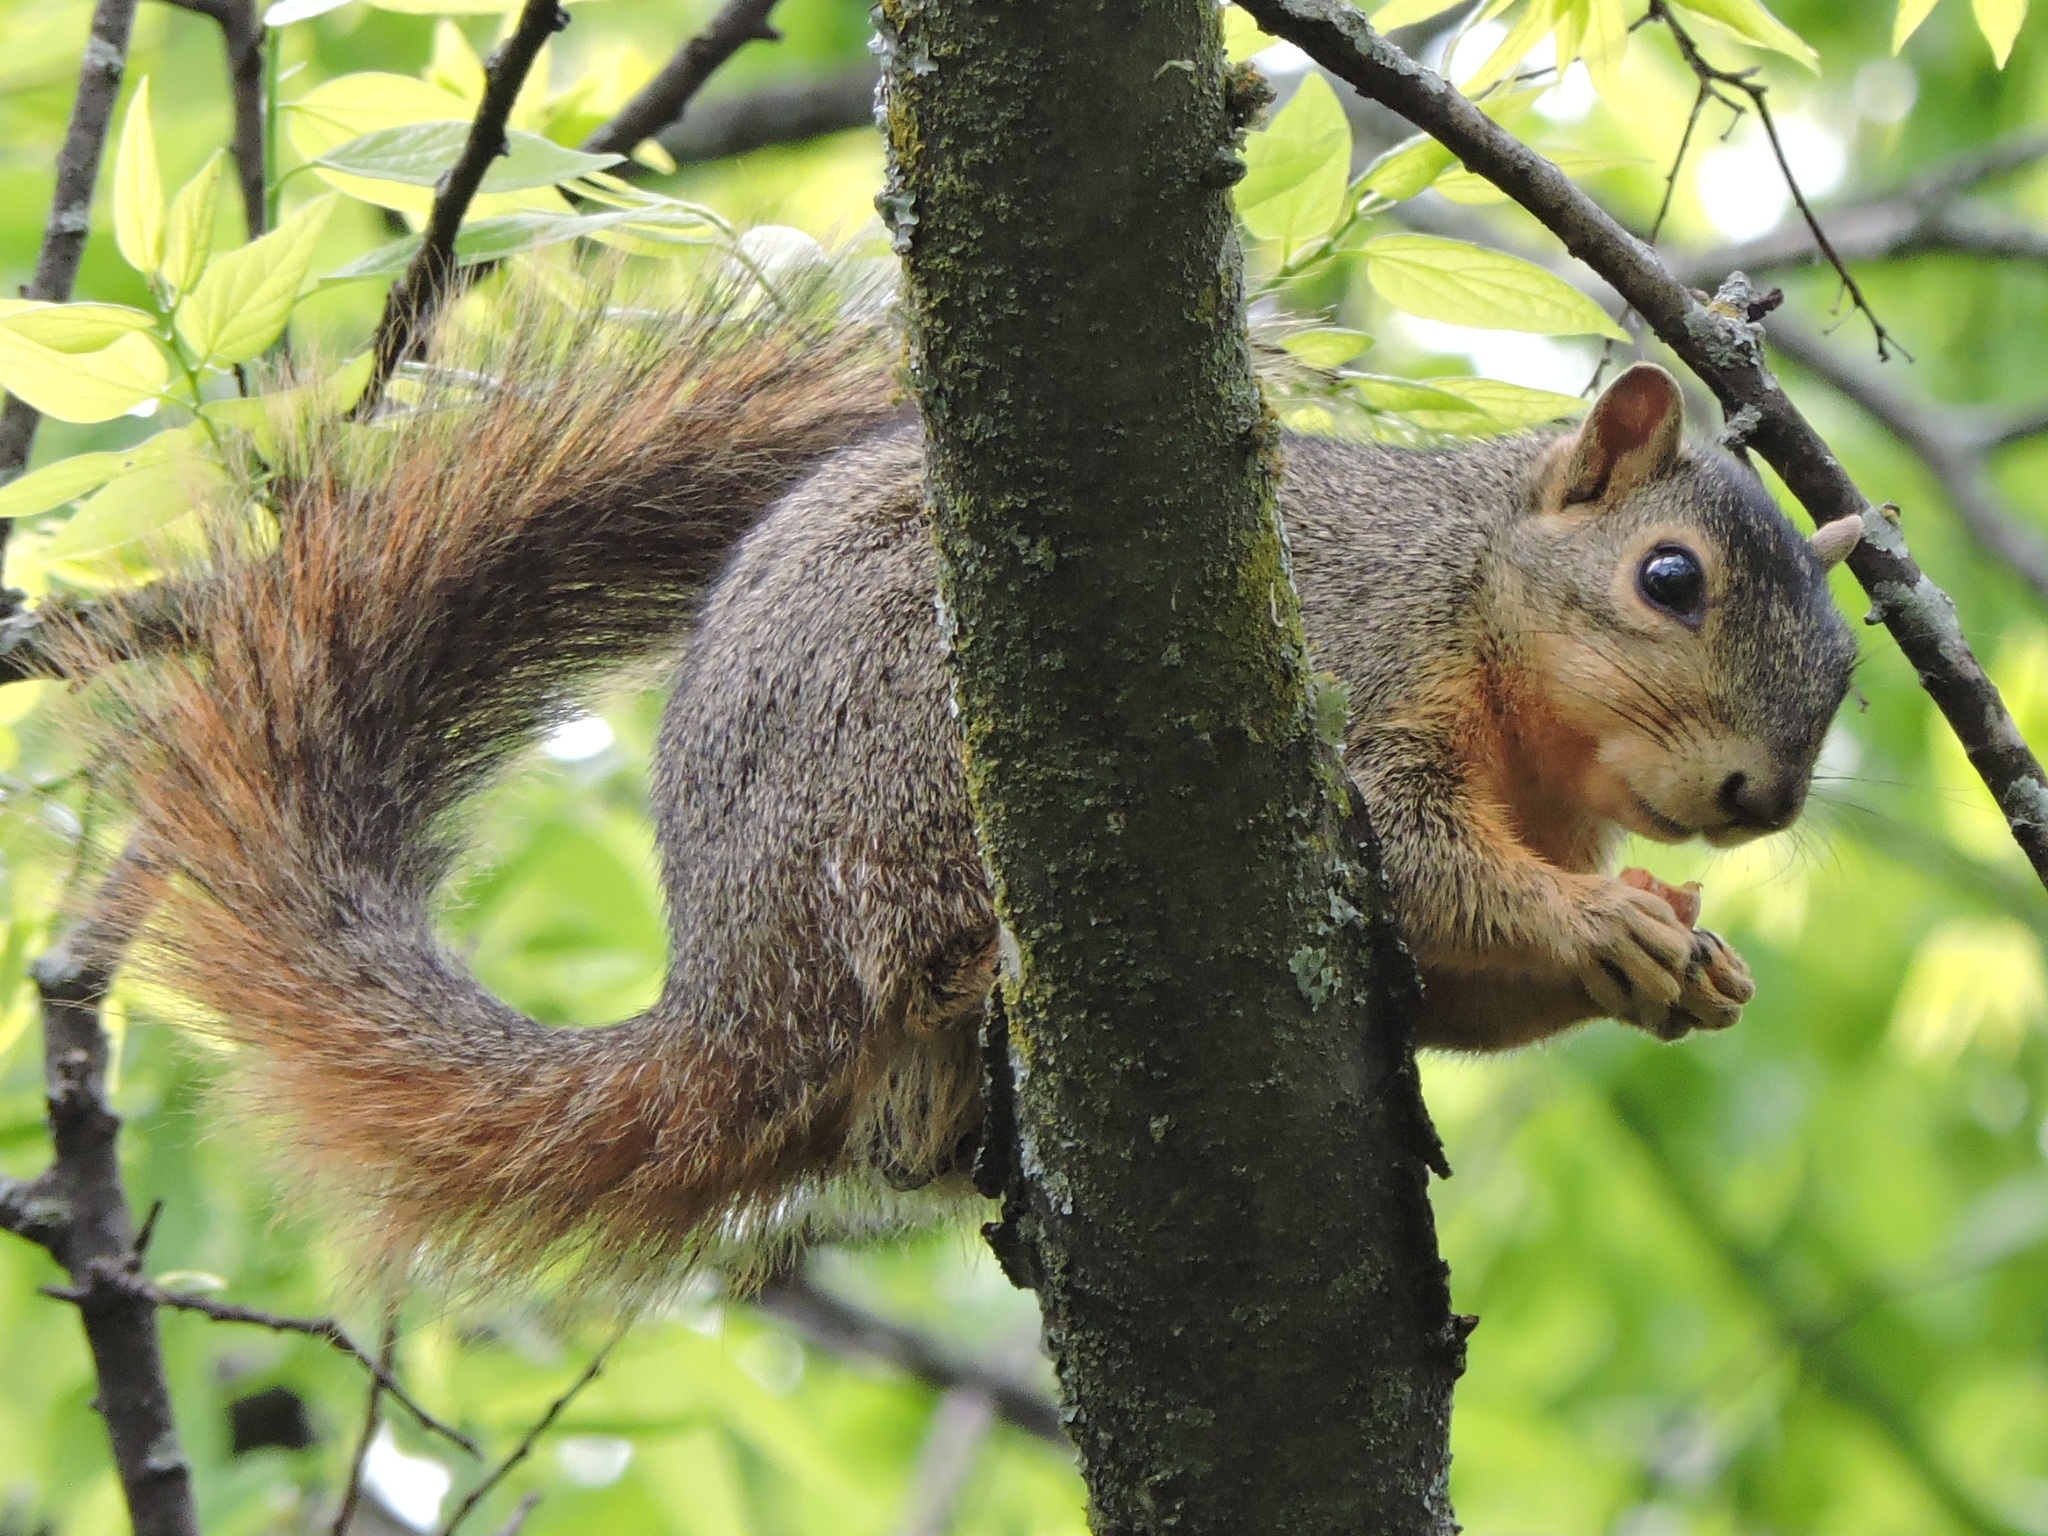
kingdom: Animalia
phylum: Chordata
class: Mammalia
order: Rodentia
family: Sciuridae
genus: Sciurus
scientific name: Sciurus niger
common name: Fox squirrel
